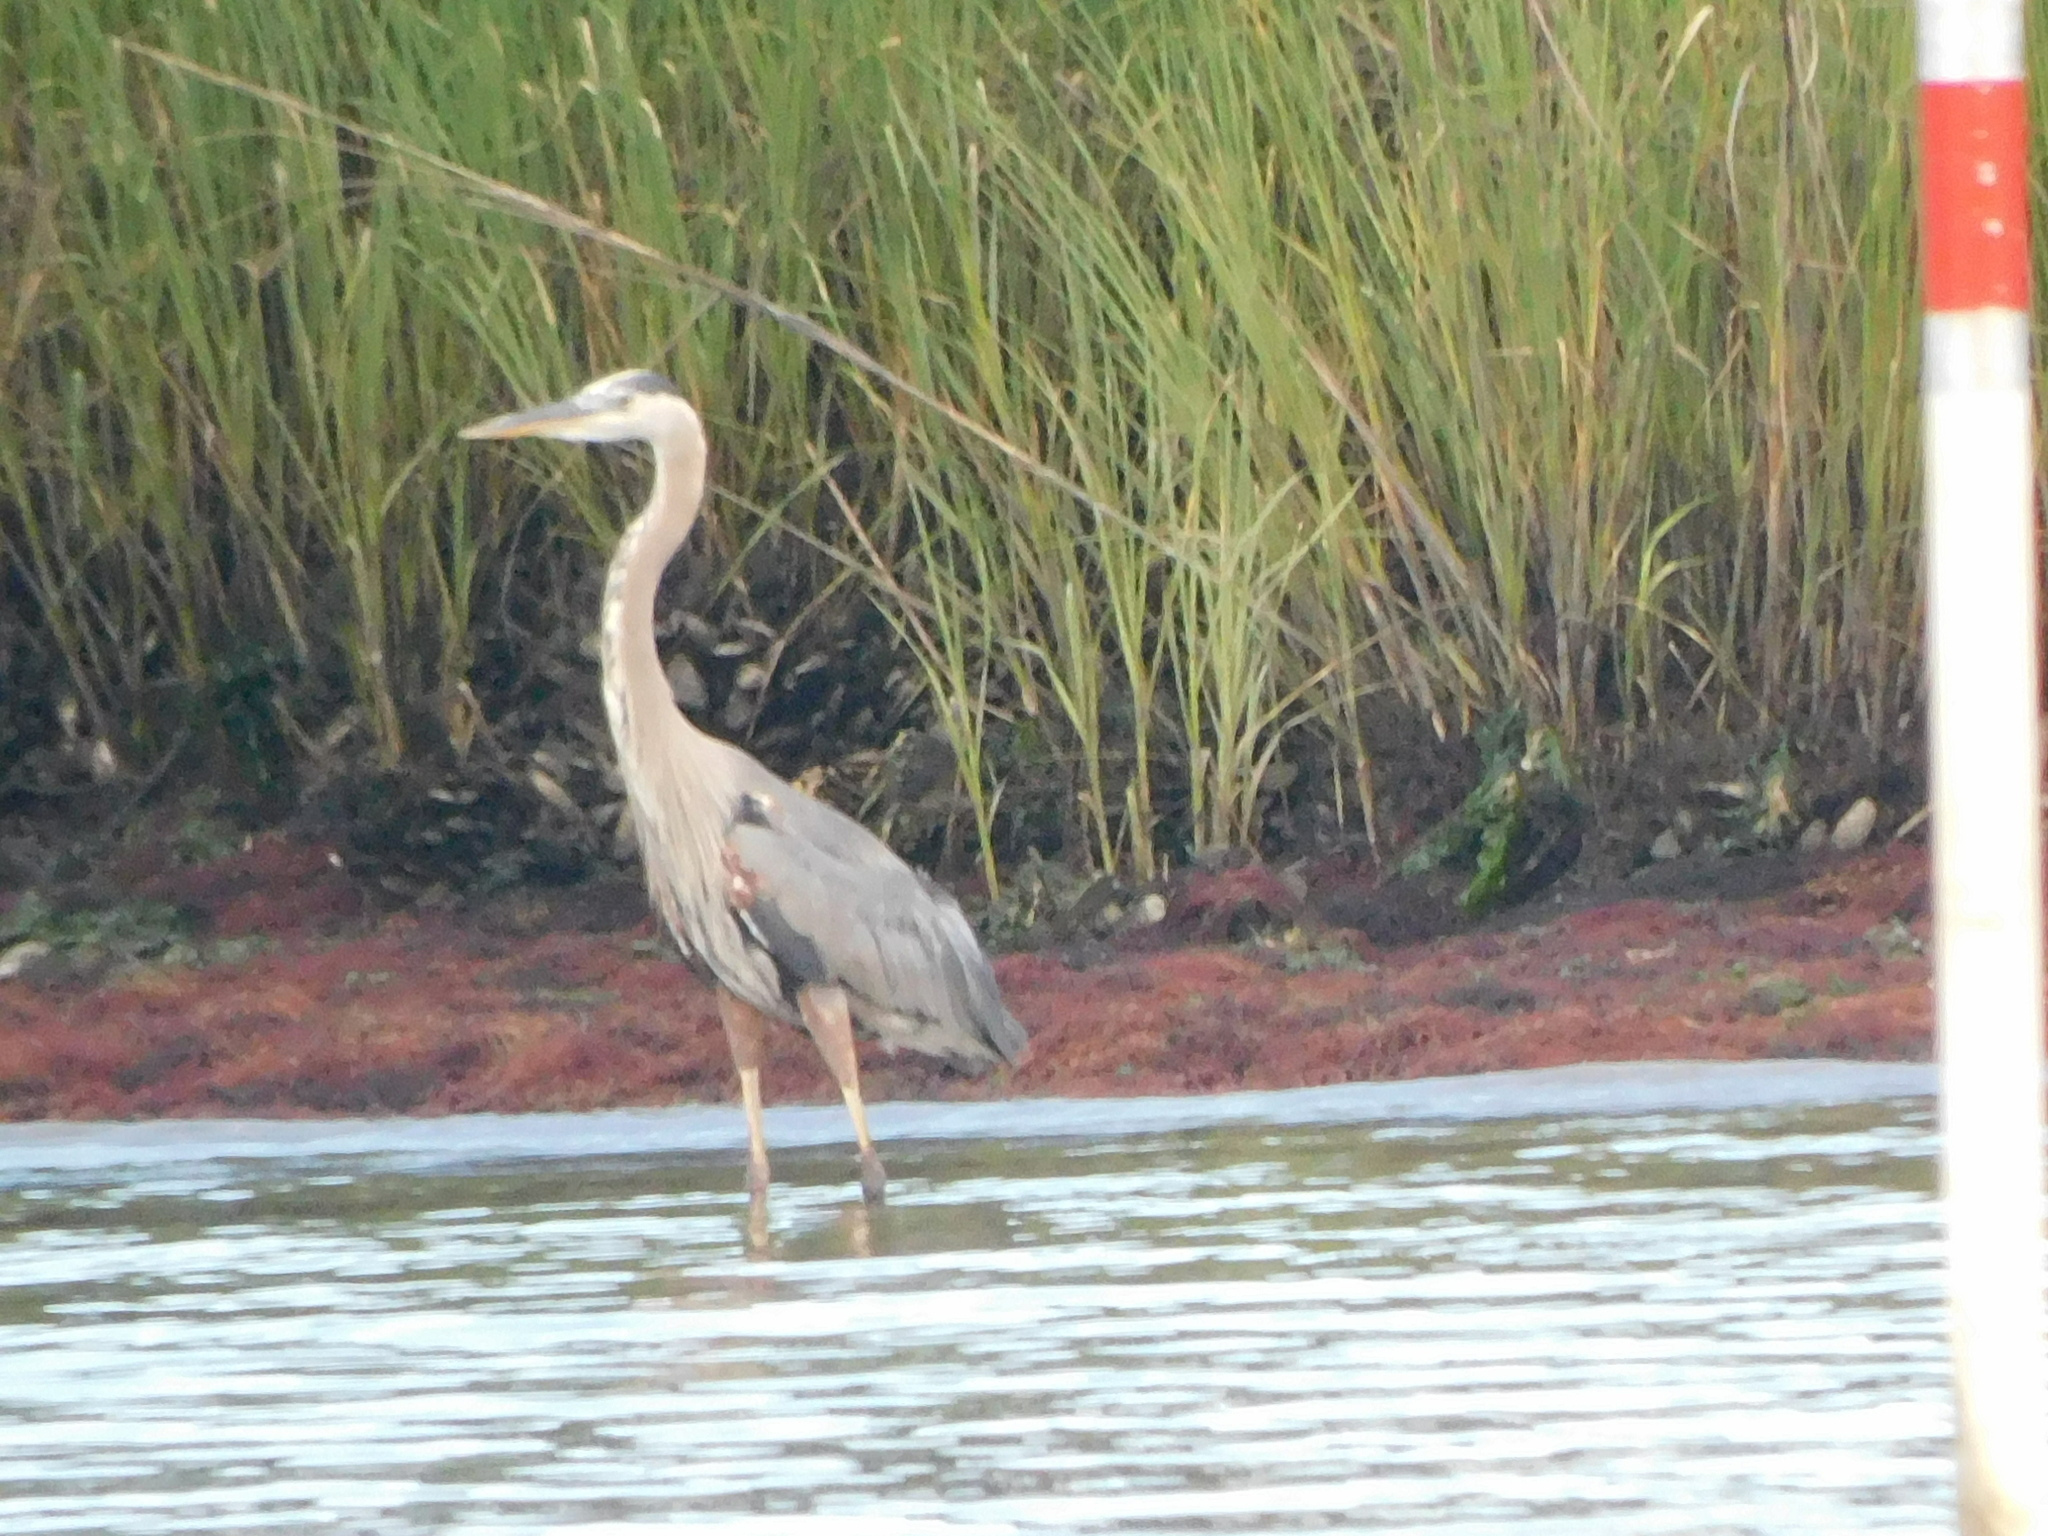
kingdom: Animalia
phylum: Chordata
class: Aves
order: Pelecaniformes
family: Ardeidae
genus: Ardea
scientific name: Ardea herodias
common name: Great blue heron
